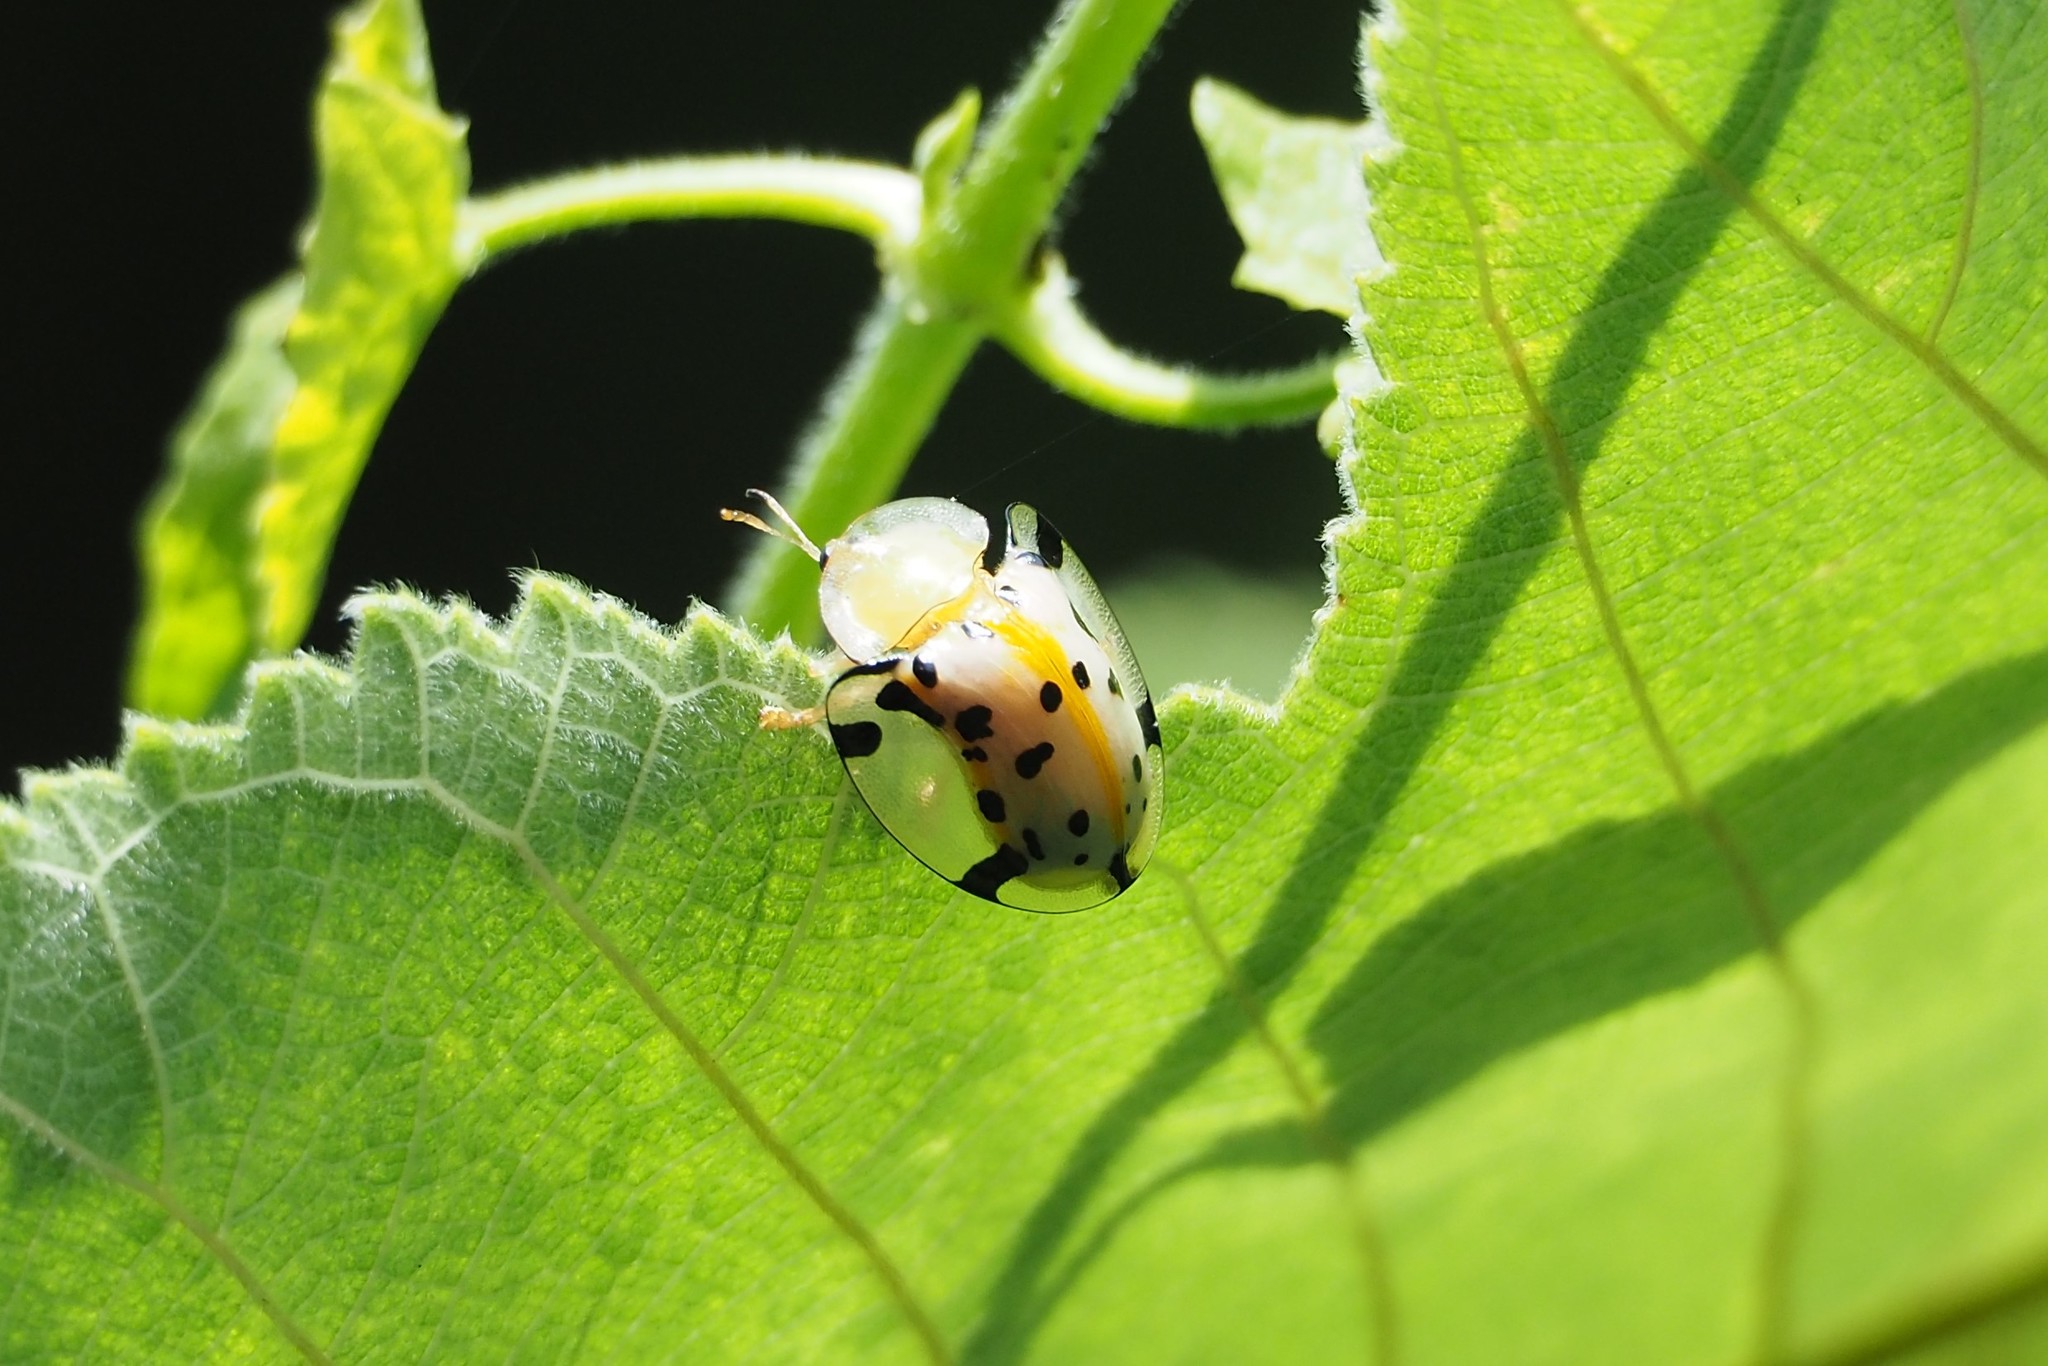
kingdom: Animalia
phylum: Arthropoda
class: Insecta
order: Coleoptera
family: Chrysomelidae
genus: Aspidimorpha
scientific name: Aspidimorpha miliaris
